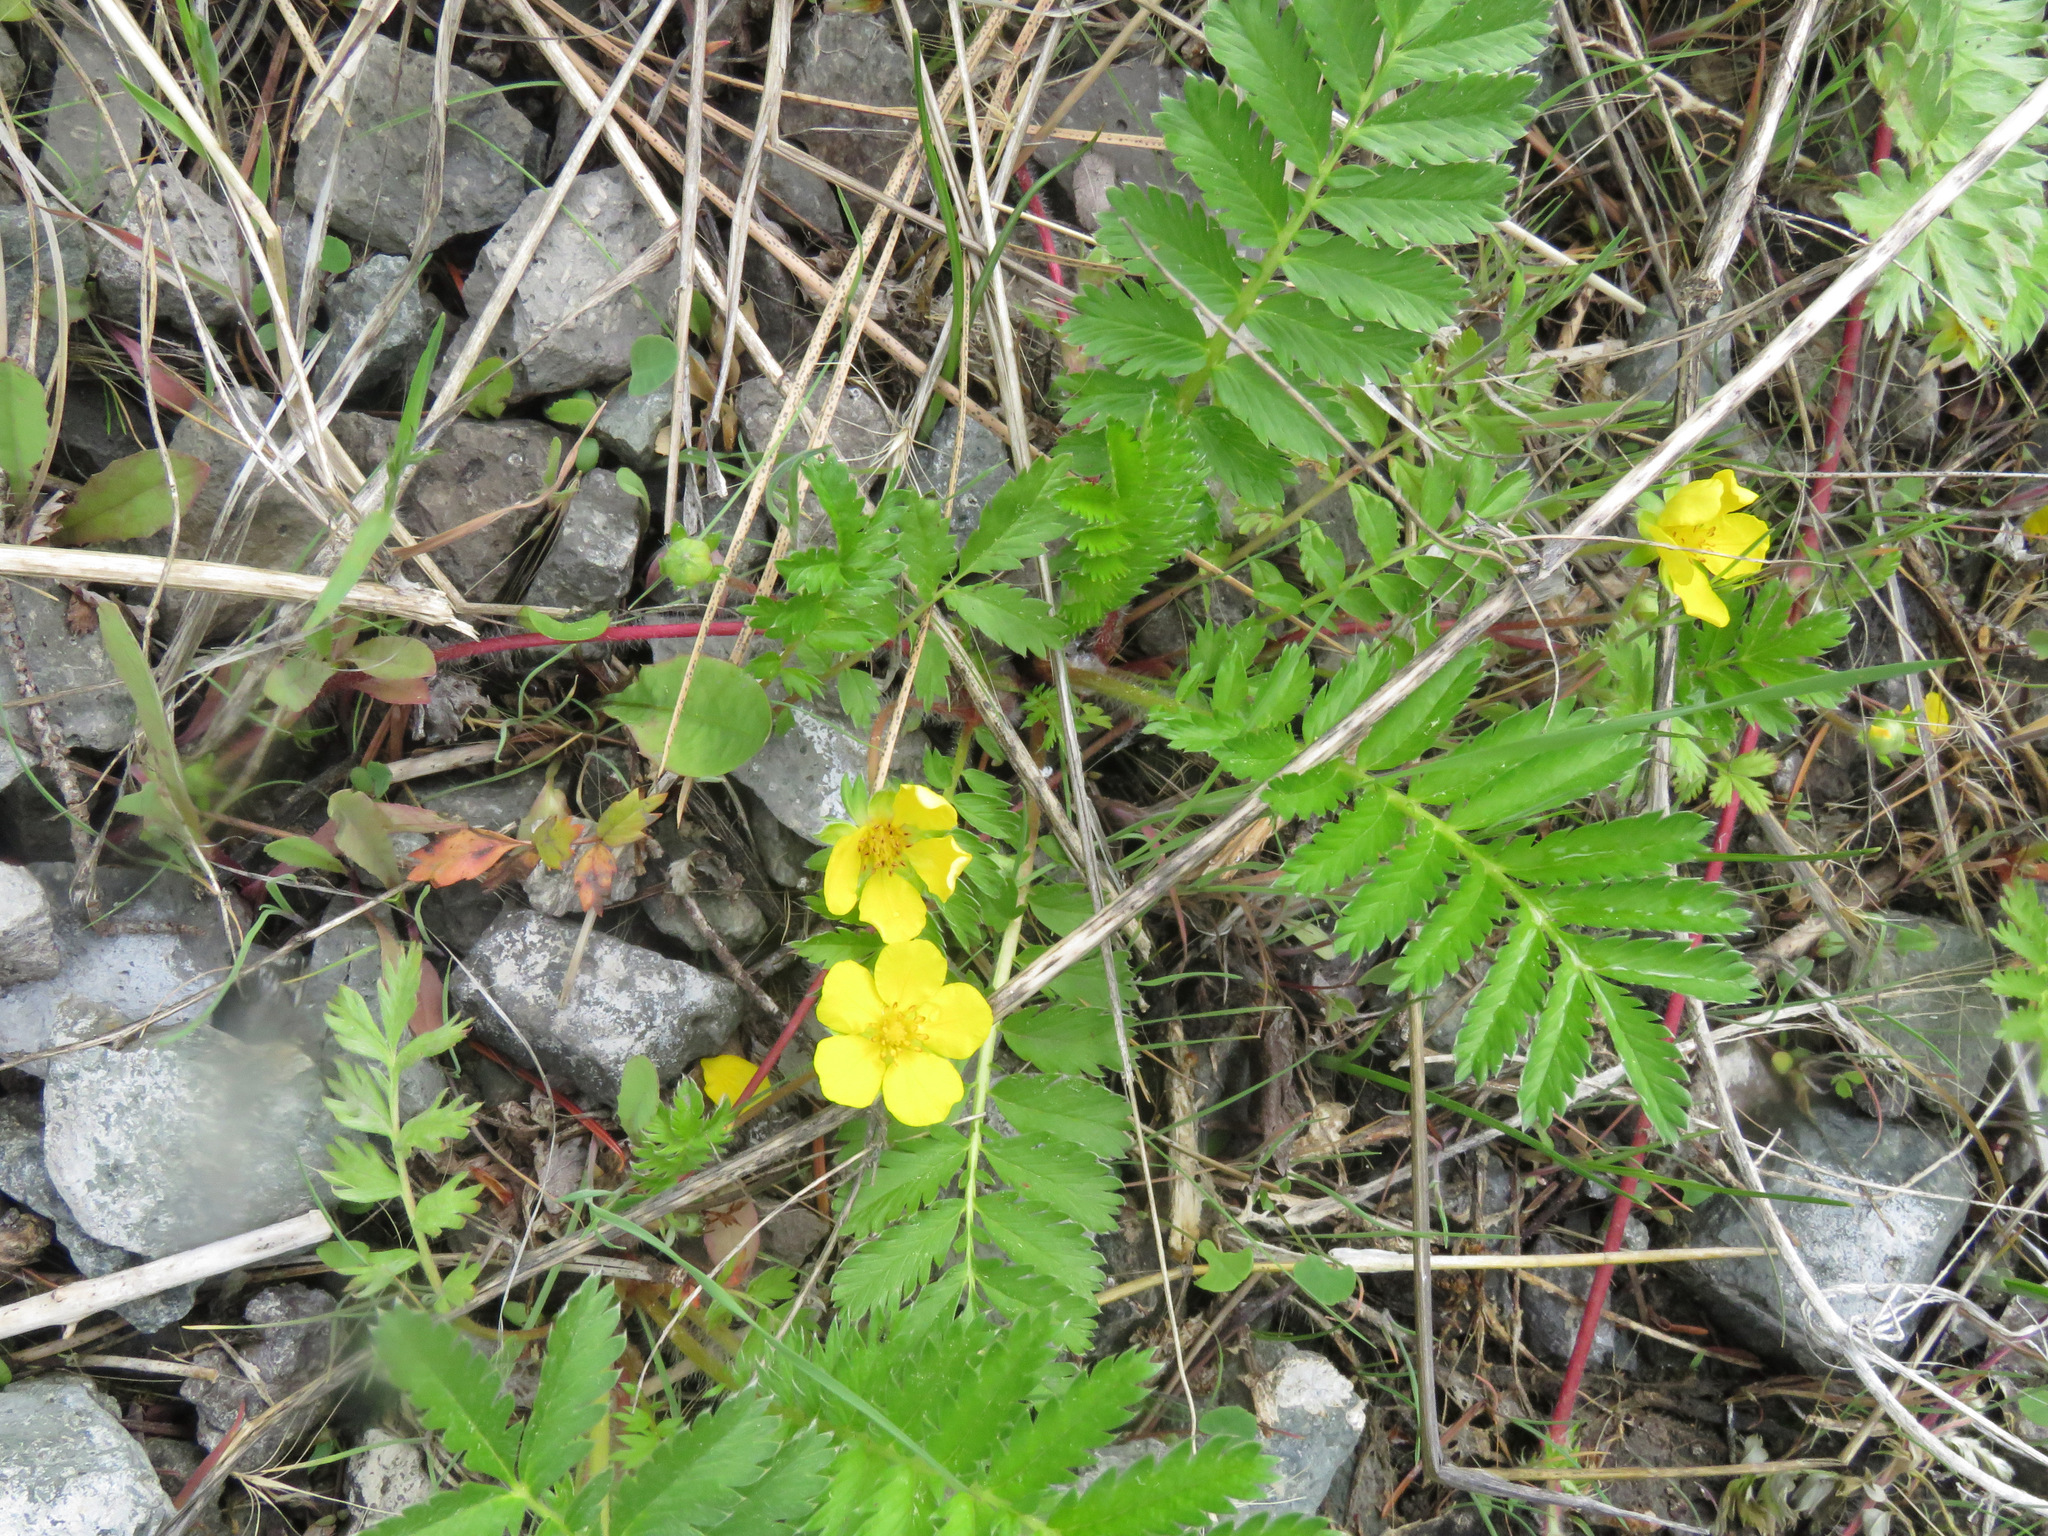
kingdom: Plantae
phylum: Tracheophyta
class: Magnoliopsida
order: Rosales
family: Rosaceae
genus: Argentina
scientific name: Argentina anserina
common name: Common silverweed
